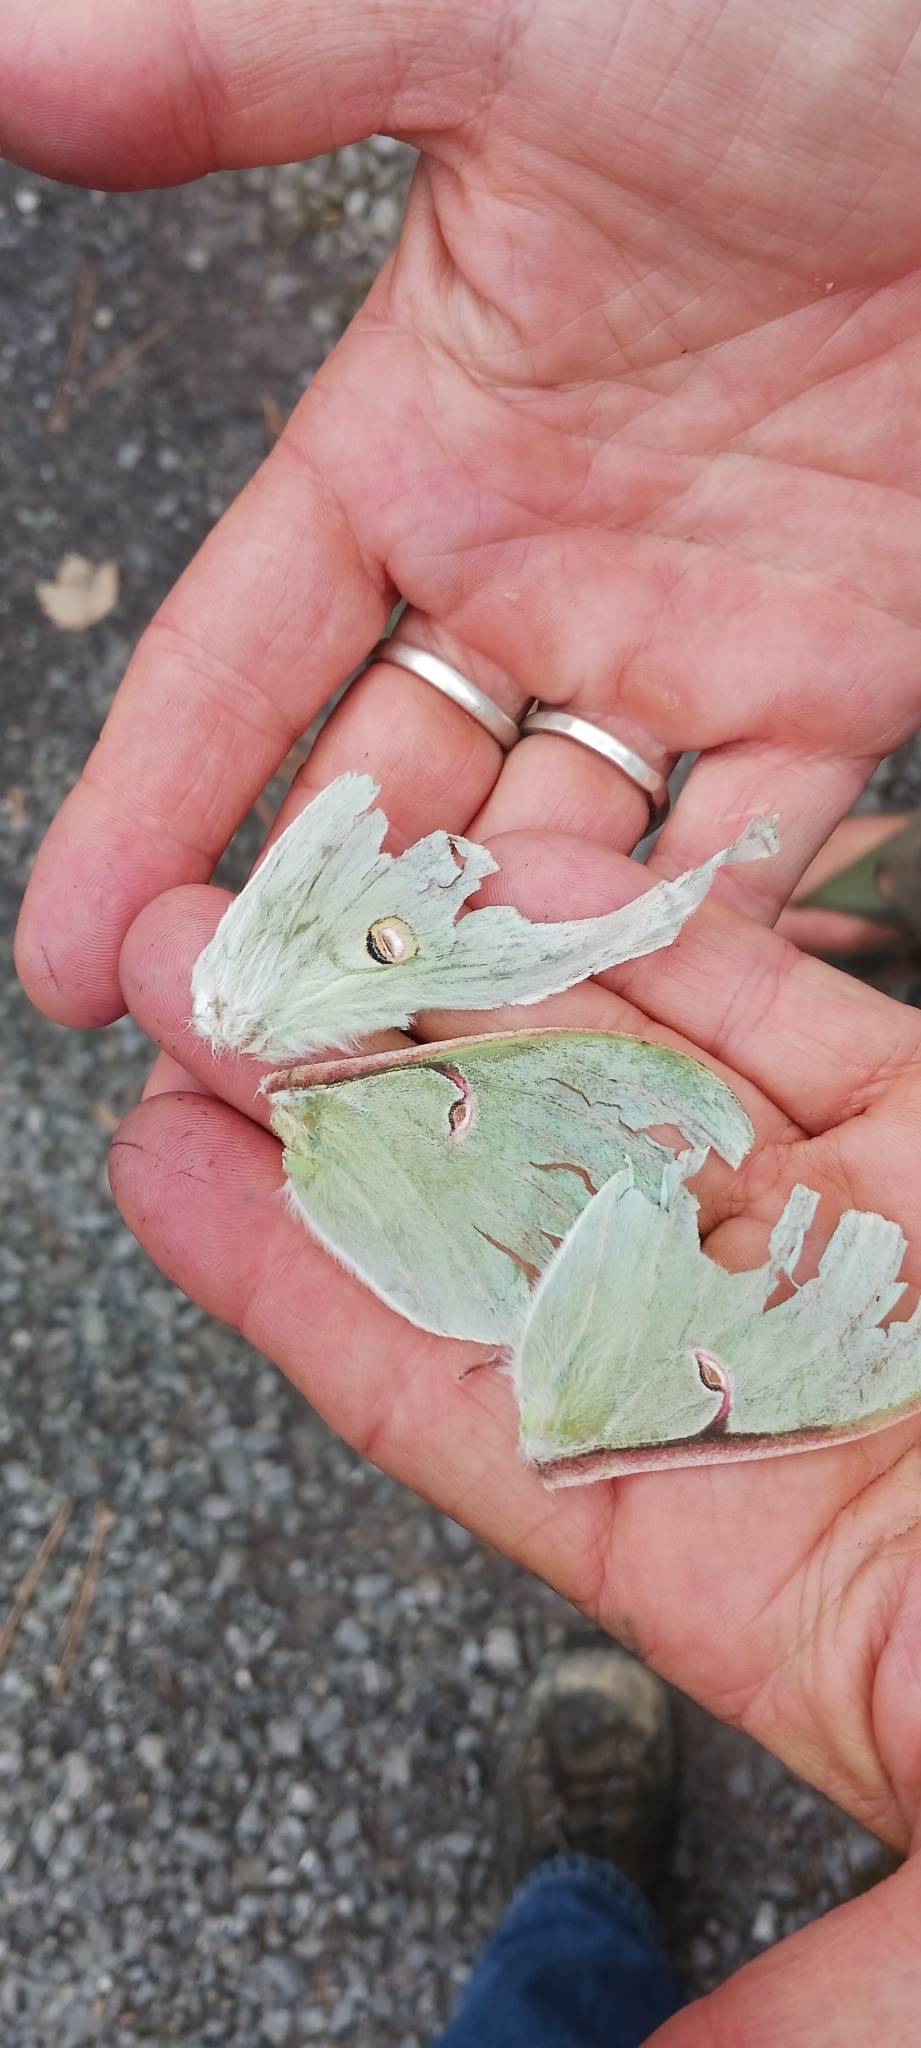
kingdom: Animalia
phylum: Arthropoda
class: Insecta
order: Lepidoptera
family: Saturniidae
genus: Actias
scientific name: Actias luna
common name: Luna moth
